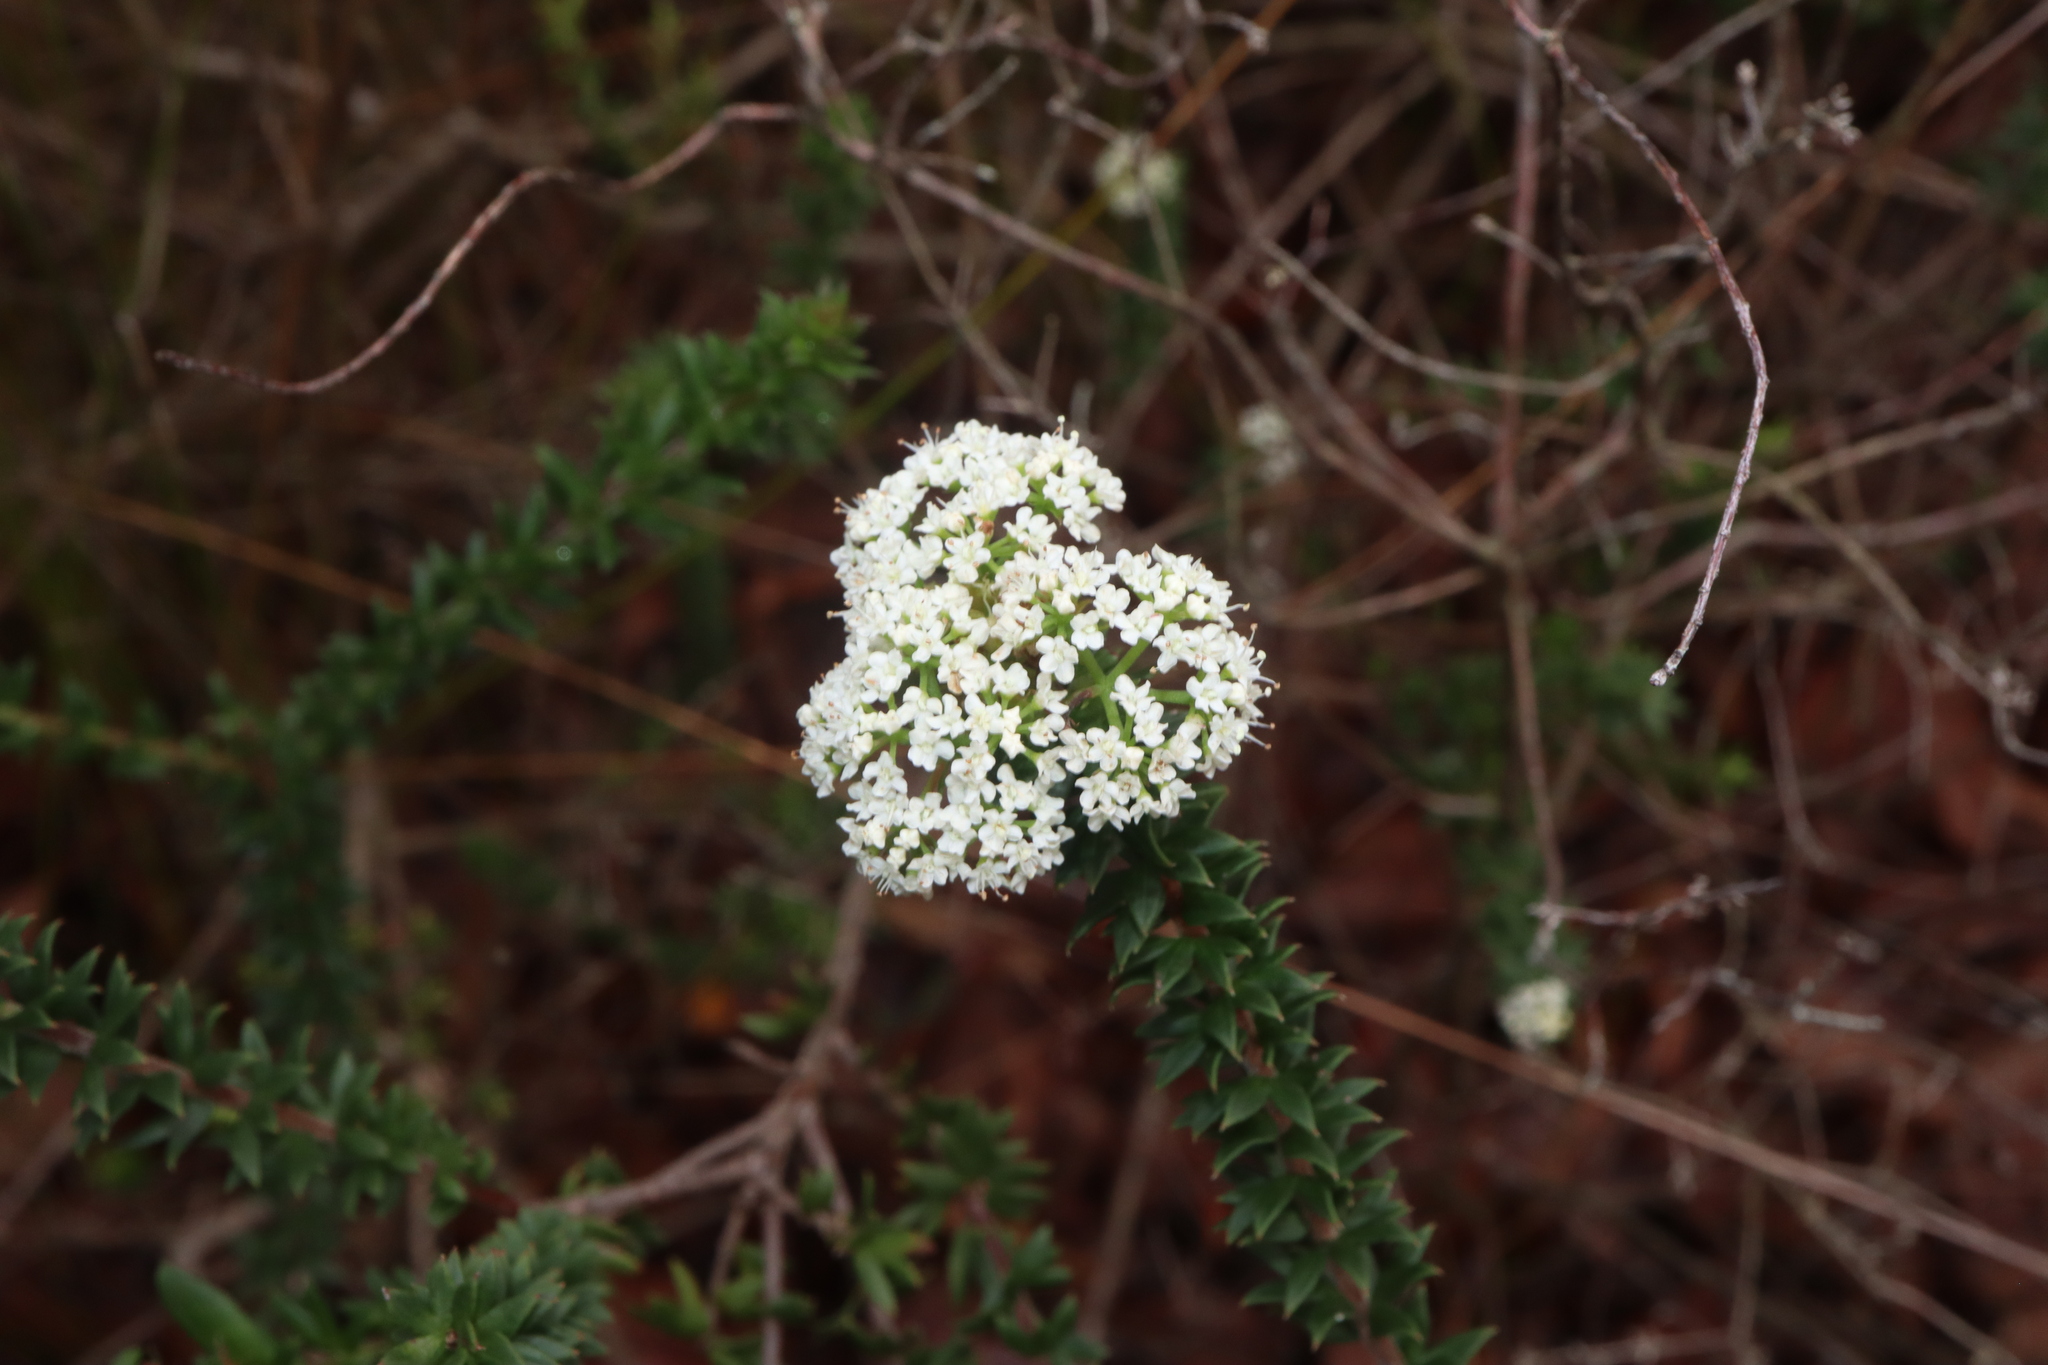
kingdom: Plantae
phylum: Tracheophyta
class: Magnoliopsida
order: Apiales
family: Apiaceae
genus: Platysace
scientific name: Platysace stephensonii
